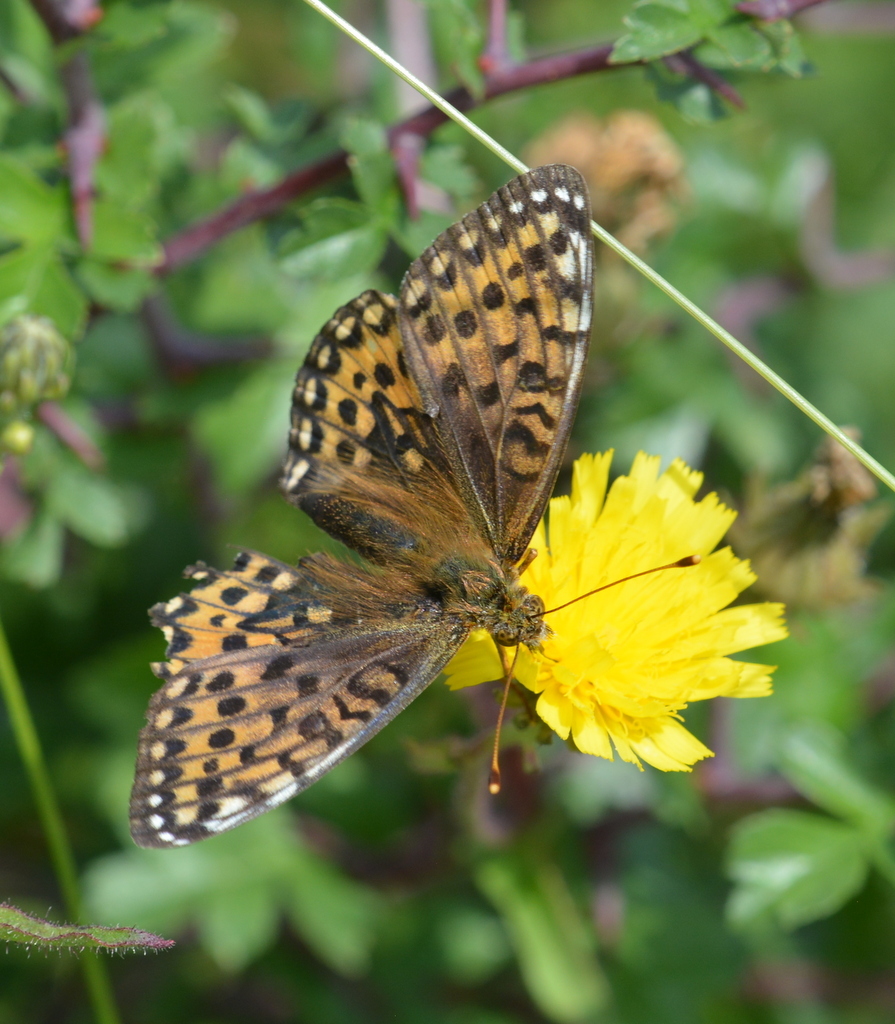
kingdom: Animalia
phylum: Arthropoda
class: Insecta
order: Lepidoptera
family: Nymphalidae
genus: Speyeria
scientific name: Speyeria aglaja
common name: Dark green fritillary
